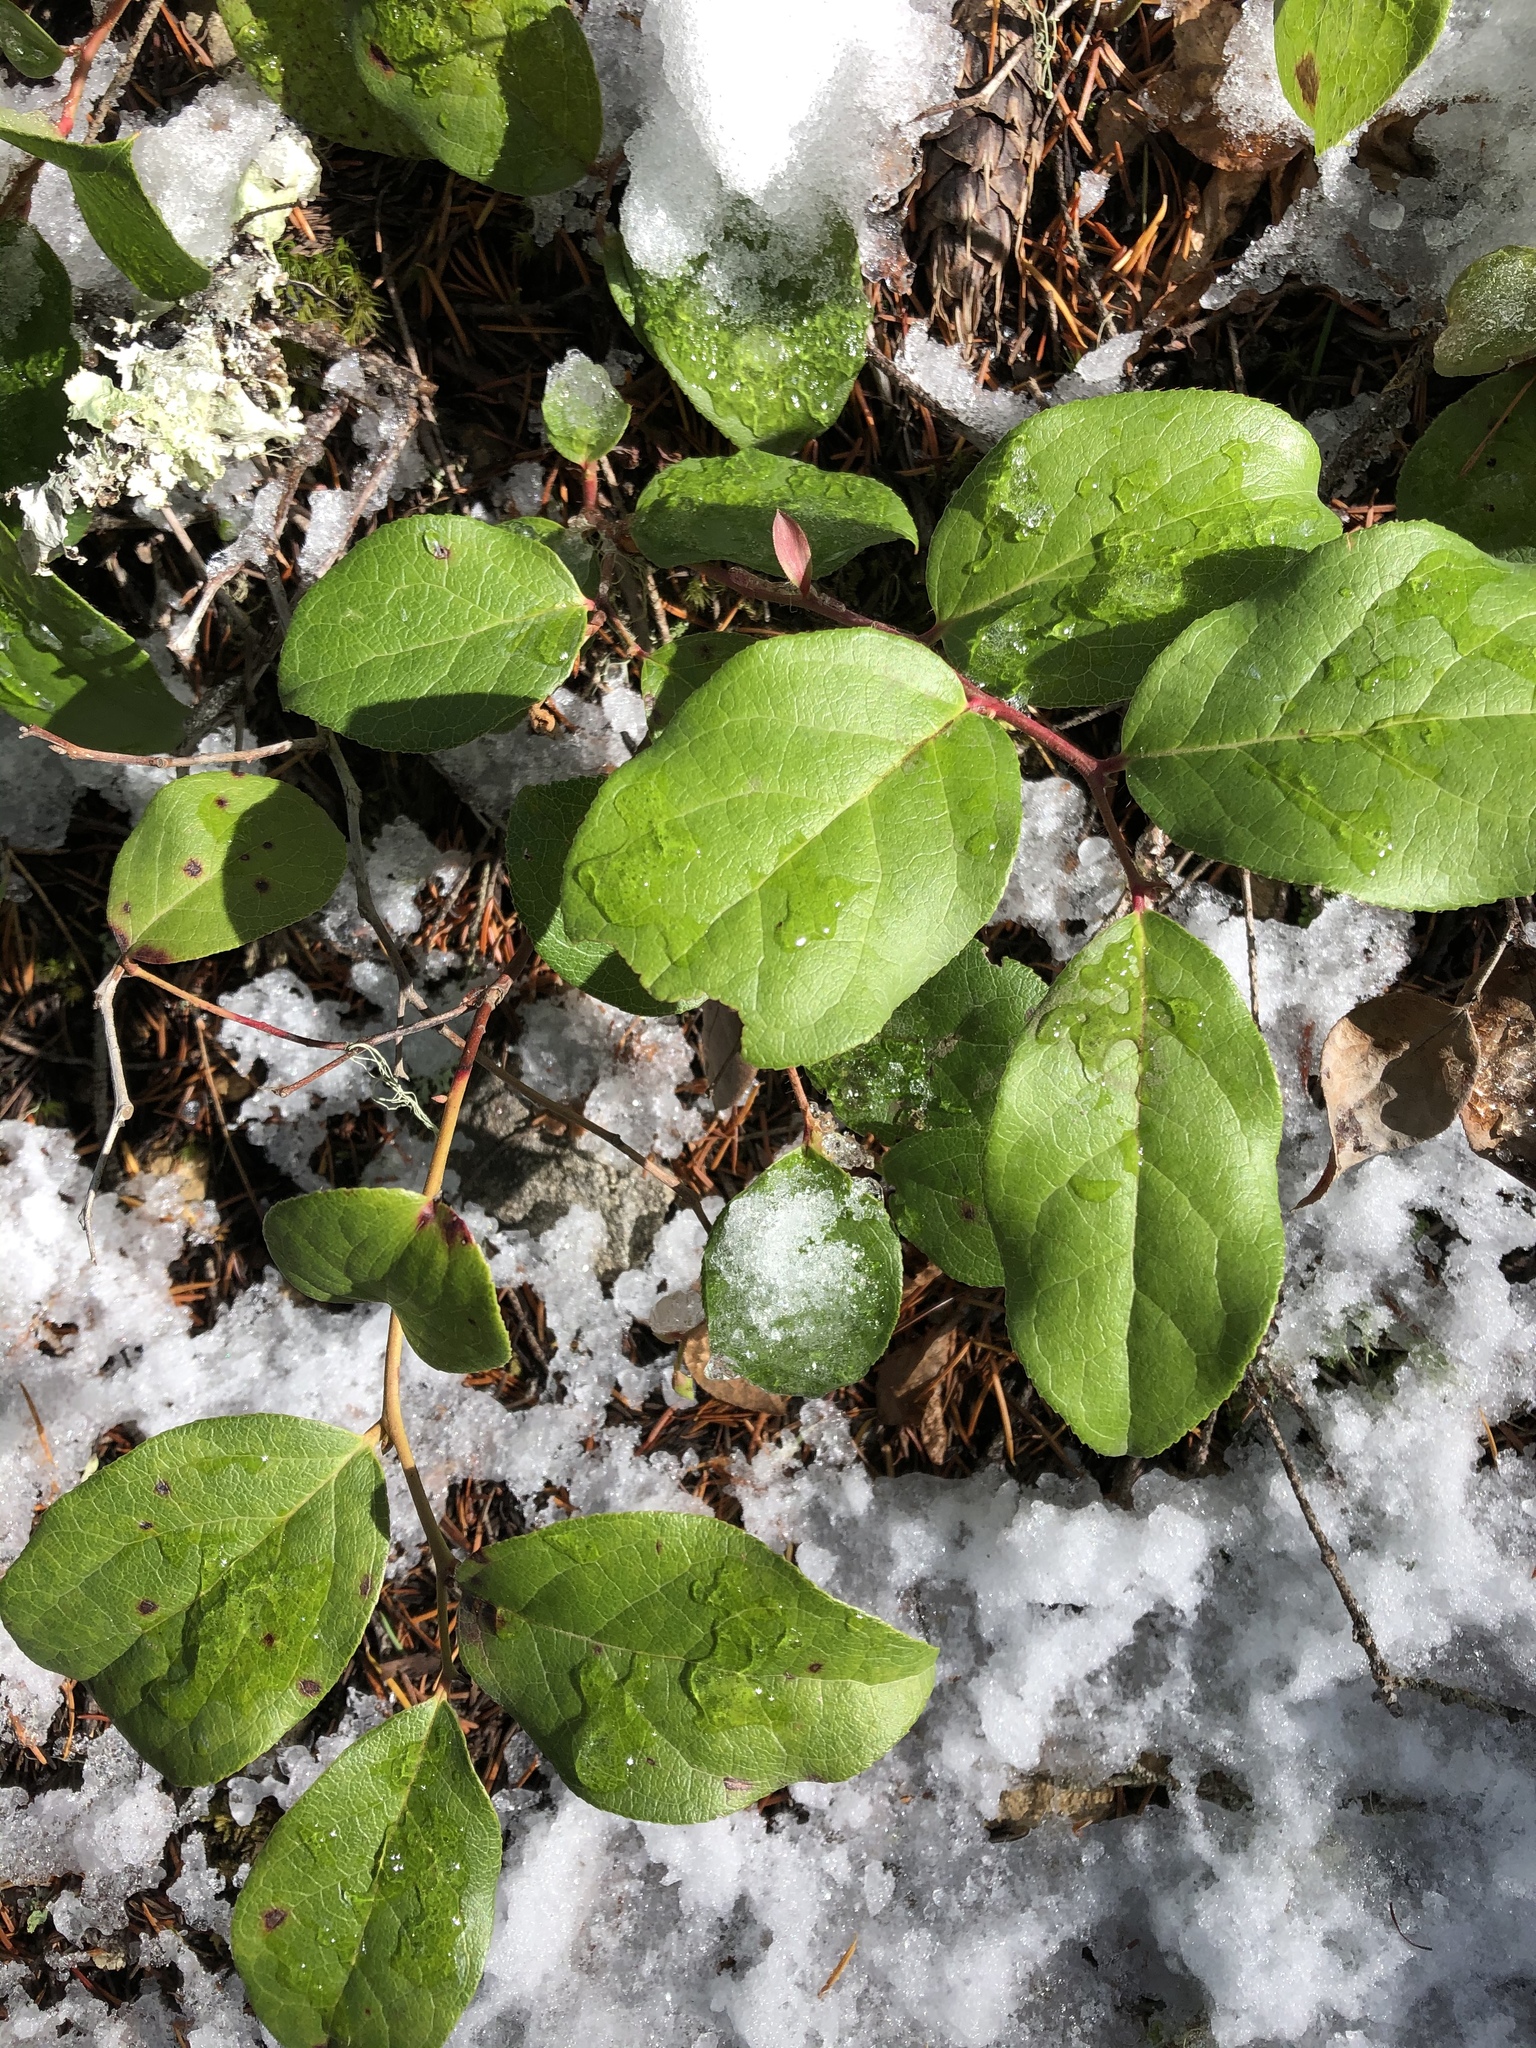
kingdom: Plantae
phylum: Tracheophyta
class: Magnoliopsida
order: Ericales
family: Ericaceae
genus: Gaultheria
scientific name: Gaultheria shallon
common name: Shallon
